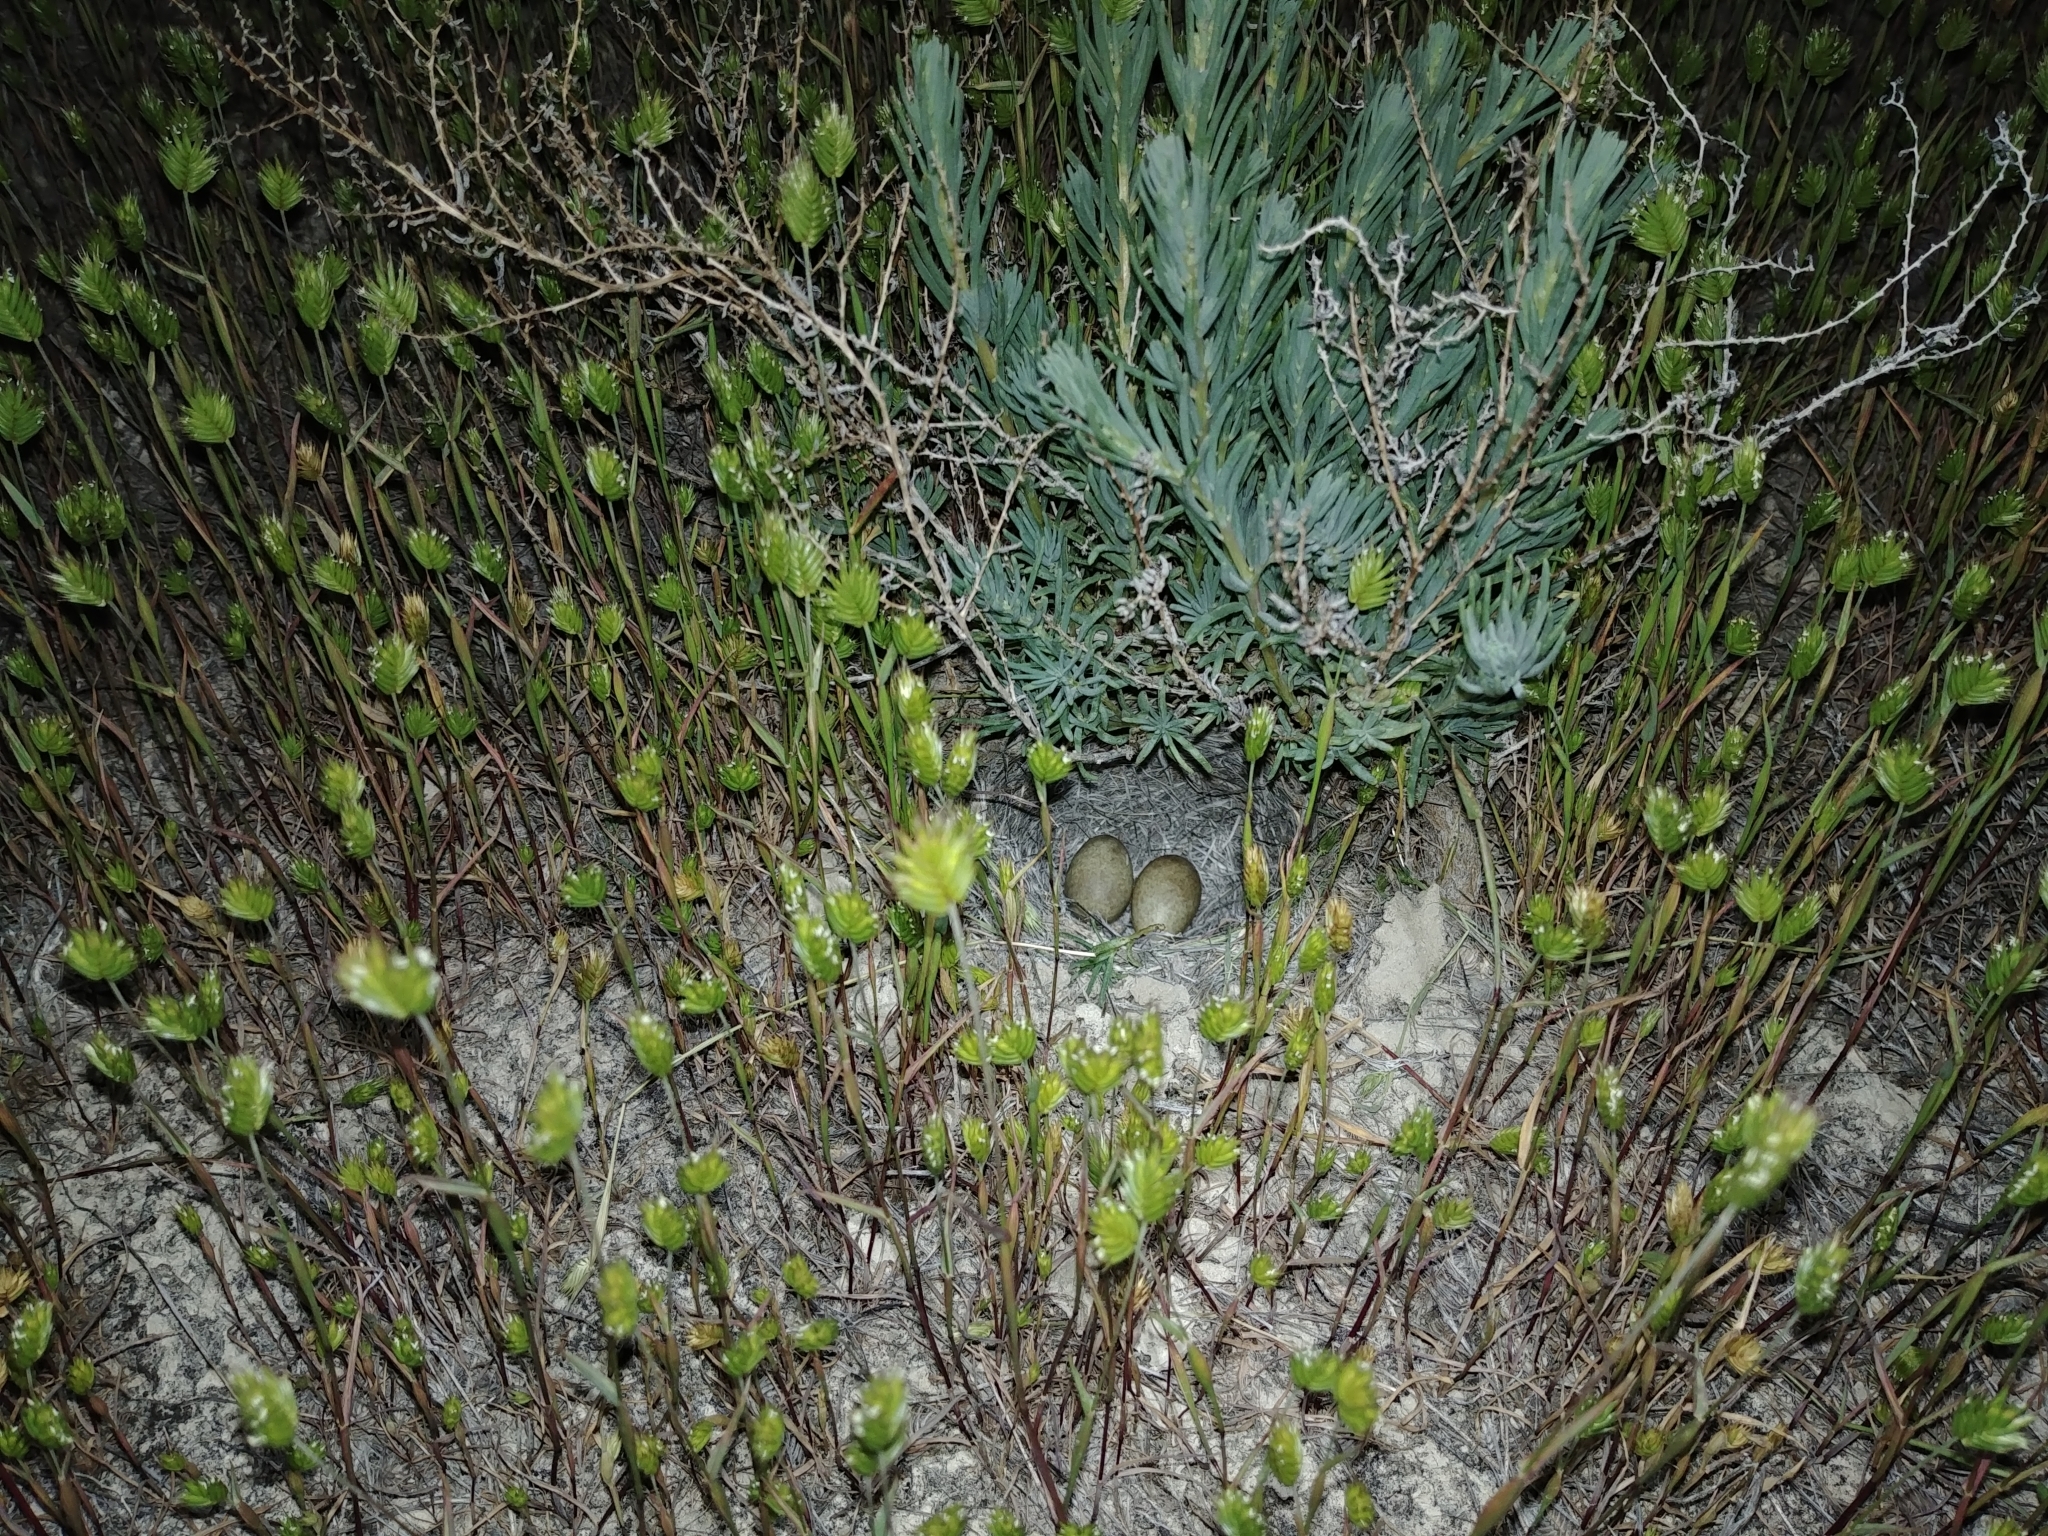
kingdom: Animalia
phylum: Chordata
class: Aves
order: Passeriformes
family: Alaudidae
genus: Eremophila
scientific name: Eremophila alpestris
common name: Horned lark
